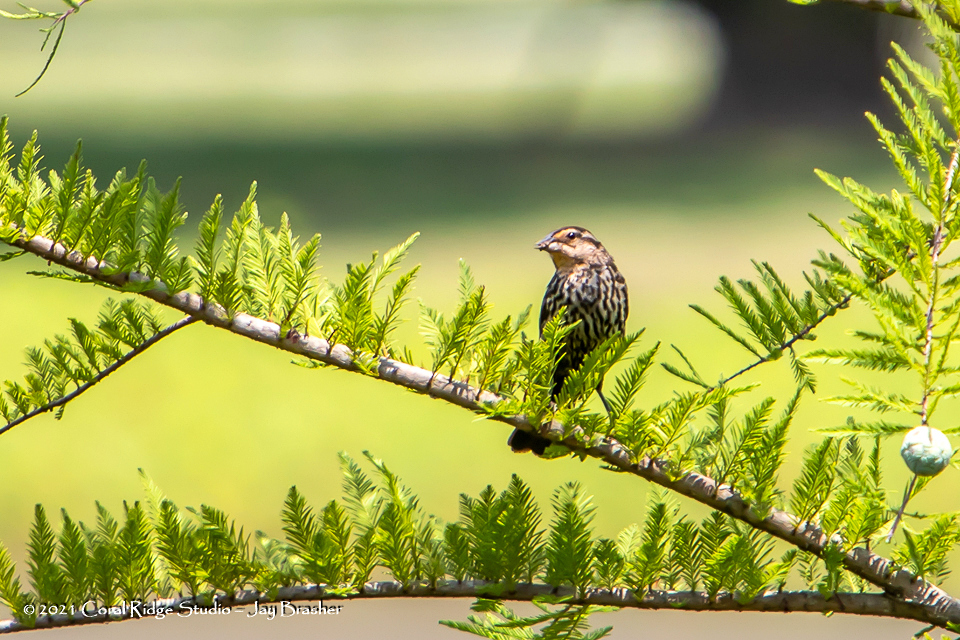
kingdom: Animalia
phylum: Chordata
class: Aves
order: Passeriformes
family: Icteridae
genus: Agelaius
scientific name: Agelaius phoeniceus
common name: Red-winged blackbird
